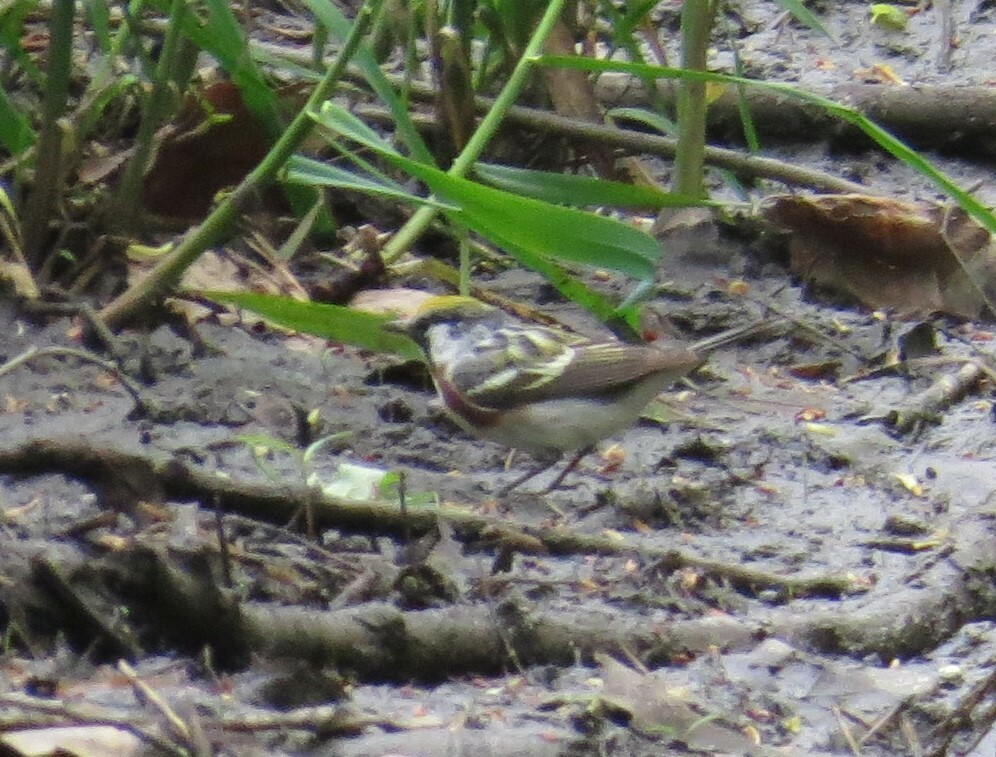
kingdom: Animalia
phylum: Chordata
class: Aves
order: Passeriformes
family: Parulidae
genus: Setophaga
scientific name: Setophaga pensylvanica
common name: Chestnut-sided warbler
